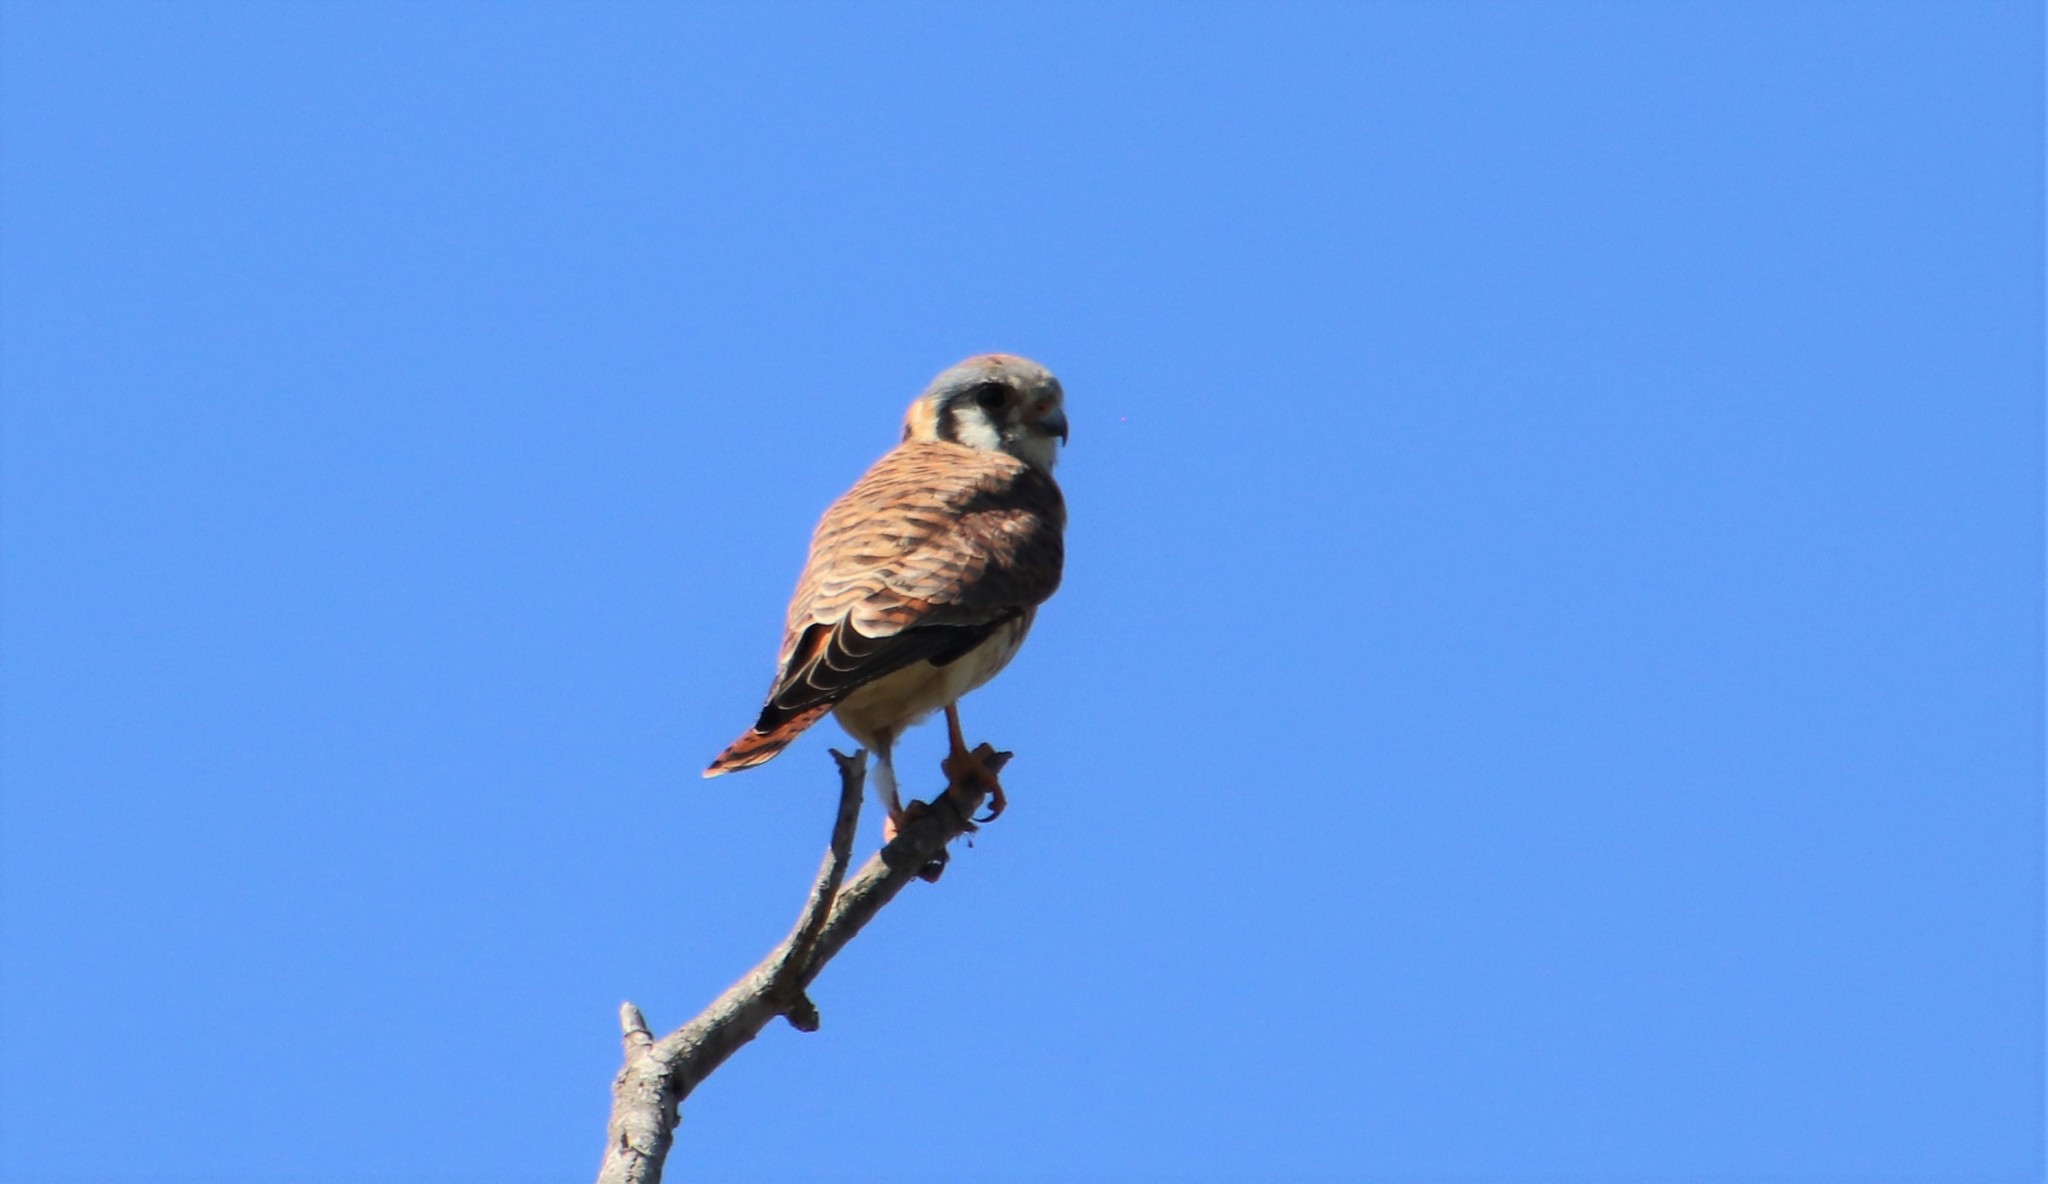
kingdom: Animalia
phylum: Chordata
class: Aves
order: Falconiformes
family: Falconidae
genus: Falco
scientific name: Falco sparverius
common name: American kestrel
